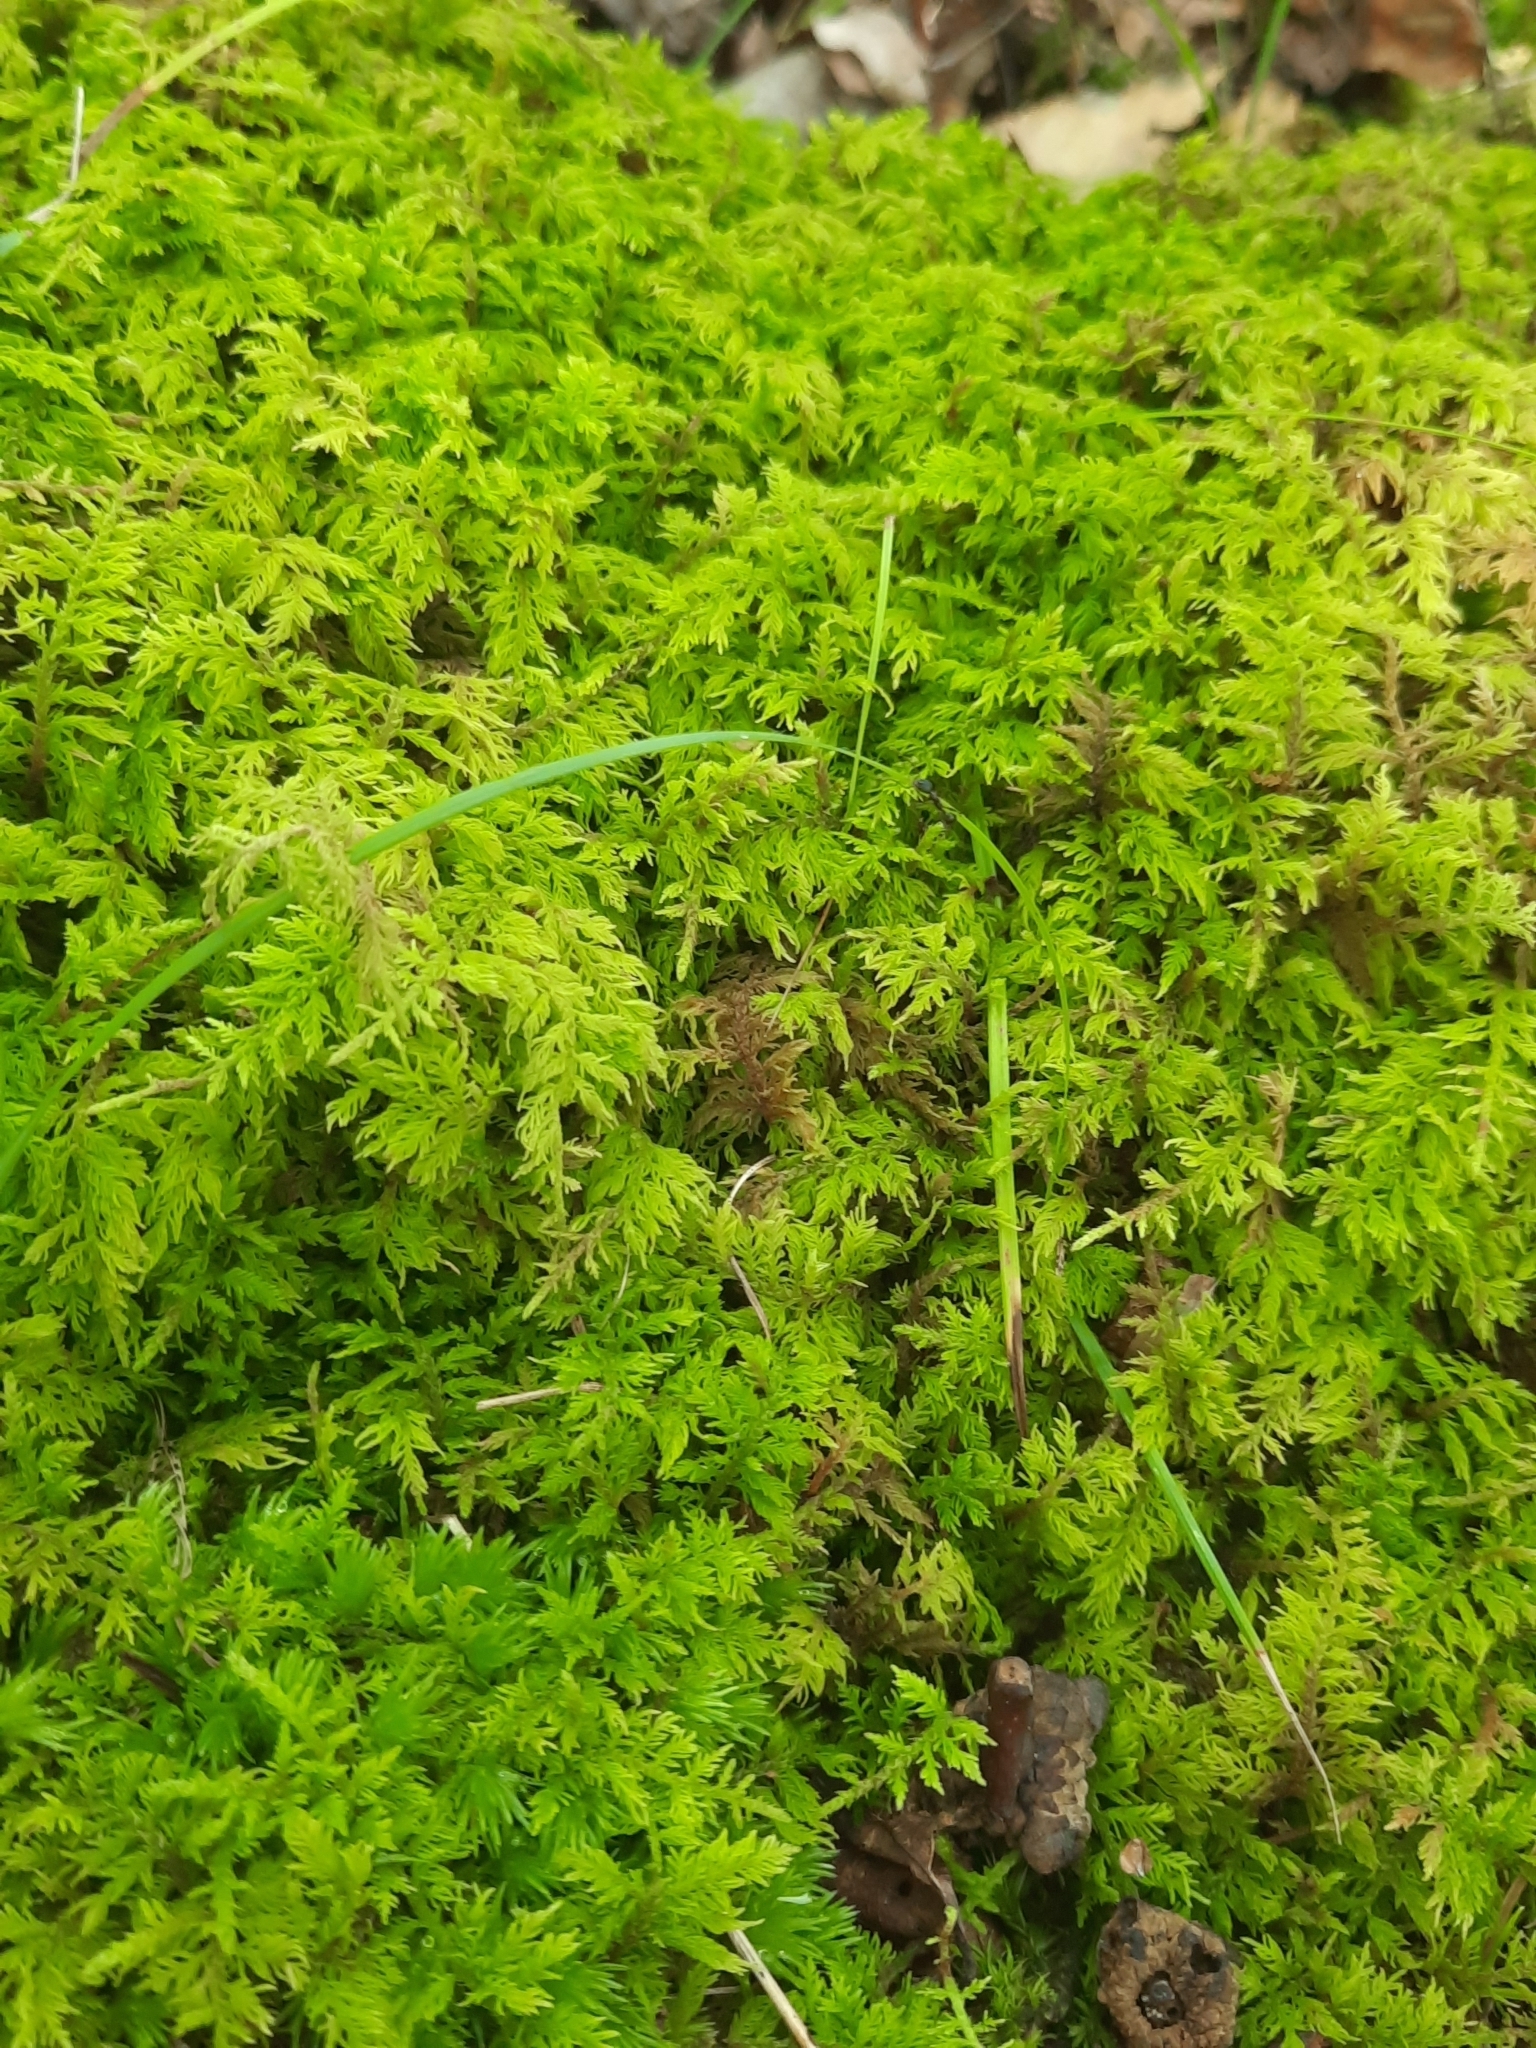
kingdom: Plantae
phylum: Bryophyta
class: Bryopsida
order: Hypnales
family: Thuidiaceae
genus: Thuidium
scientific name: Thuidium delicatulum
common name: Delicate fern moss
